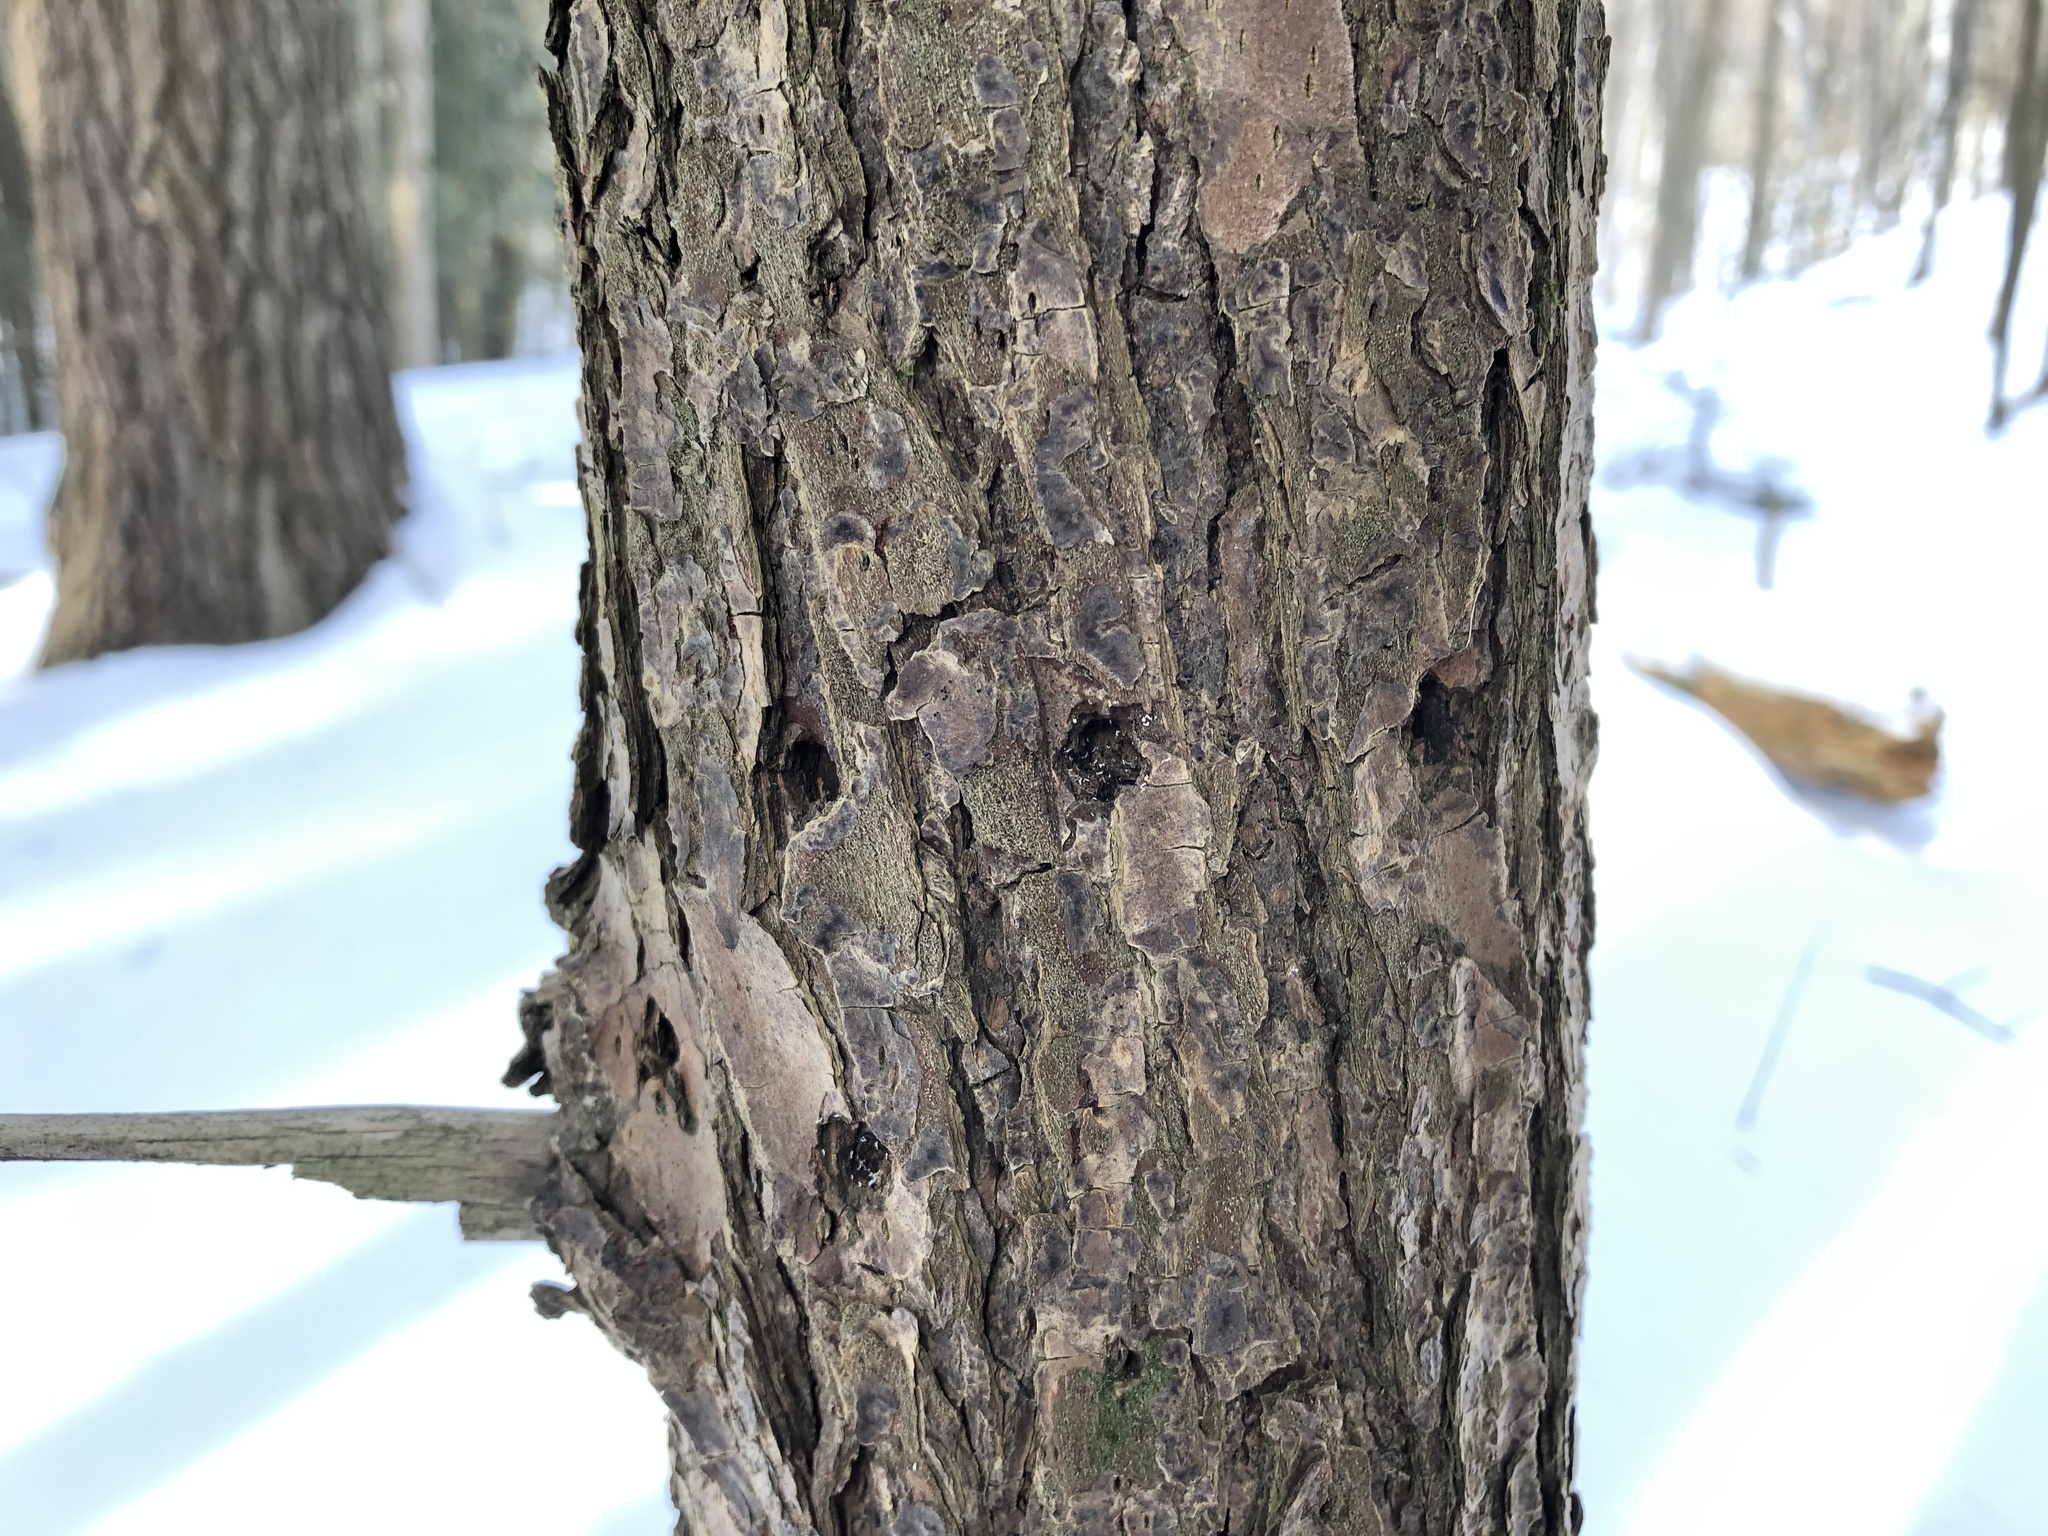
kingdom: Animalia
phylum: Chordata
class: Aves
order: Piciformes
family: Picidae
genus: Sphyrapicus
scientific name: Sphyrapicus varius
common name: Yellow-bellied sapsucker
